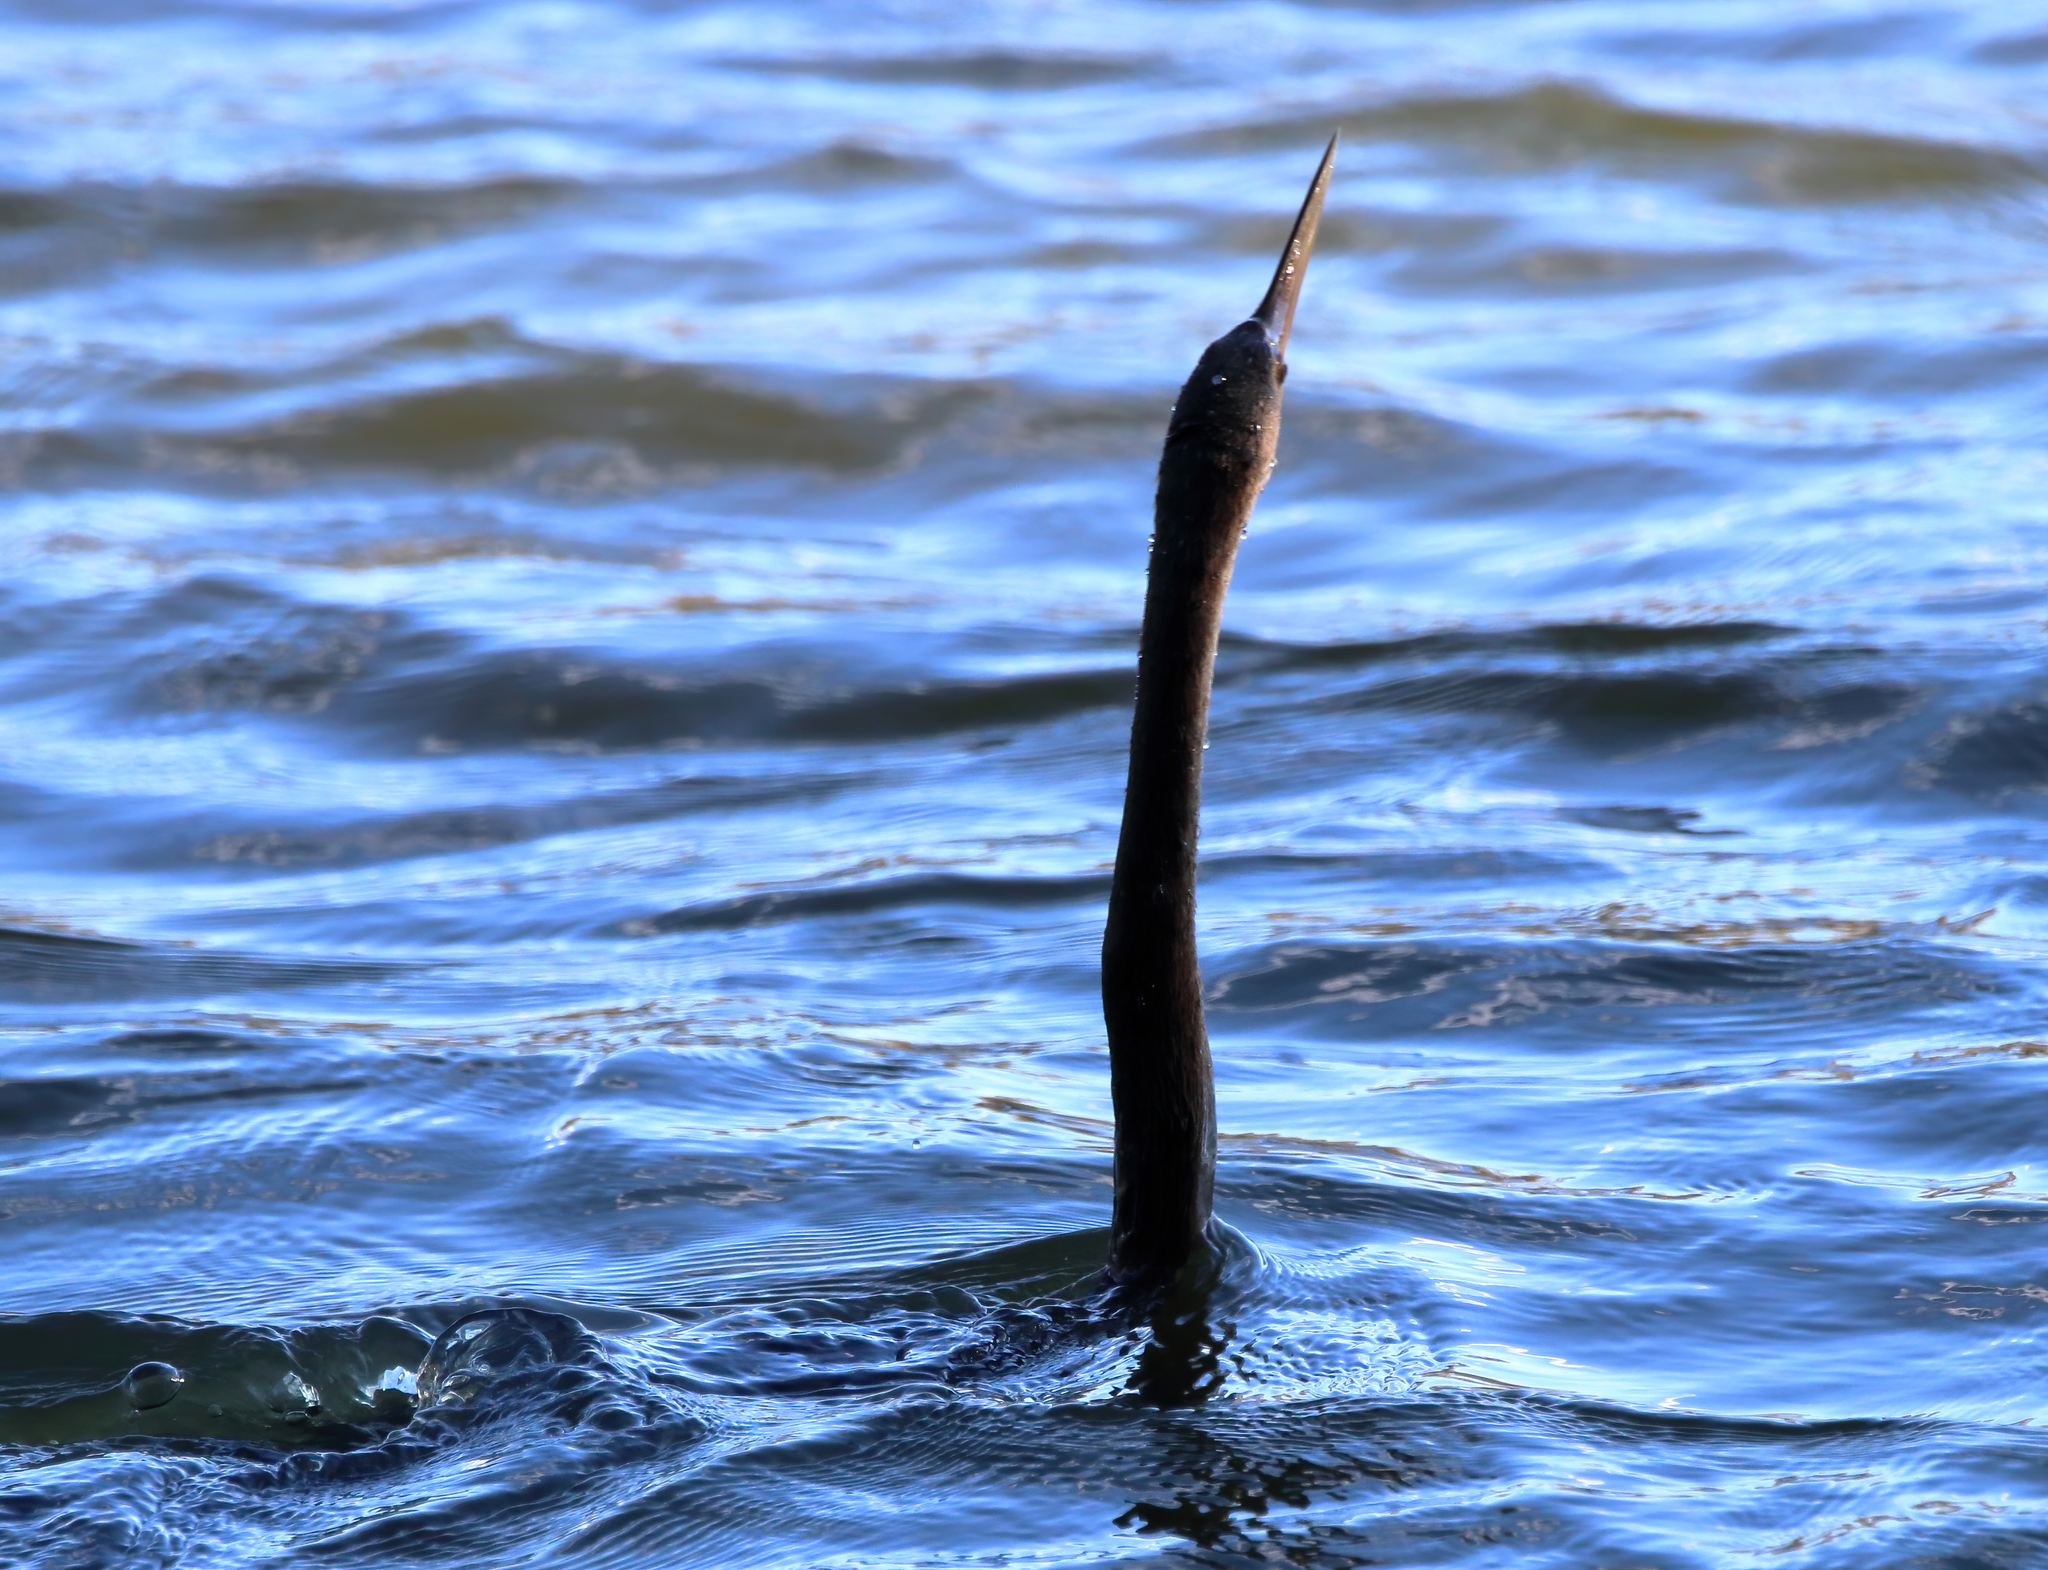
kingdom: Animalia
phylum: Chordata
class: Aves
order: Suliformes
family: Anhingidae
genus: Anhinga
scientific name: Anhinga anhinga
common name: Anhinga
